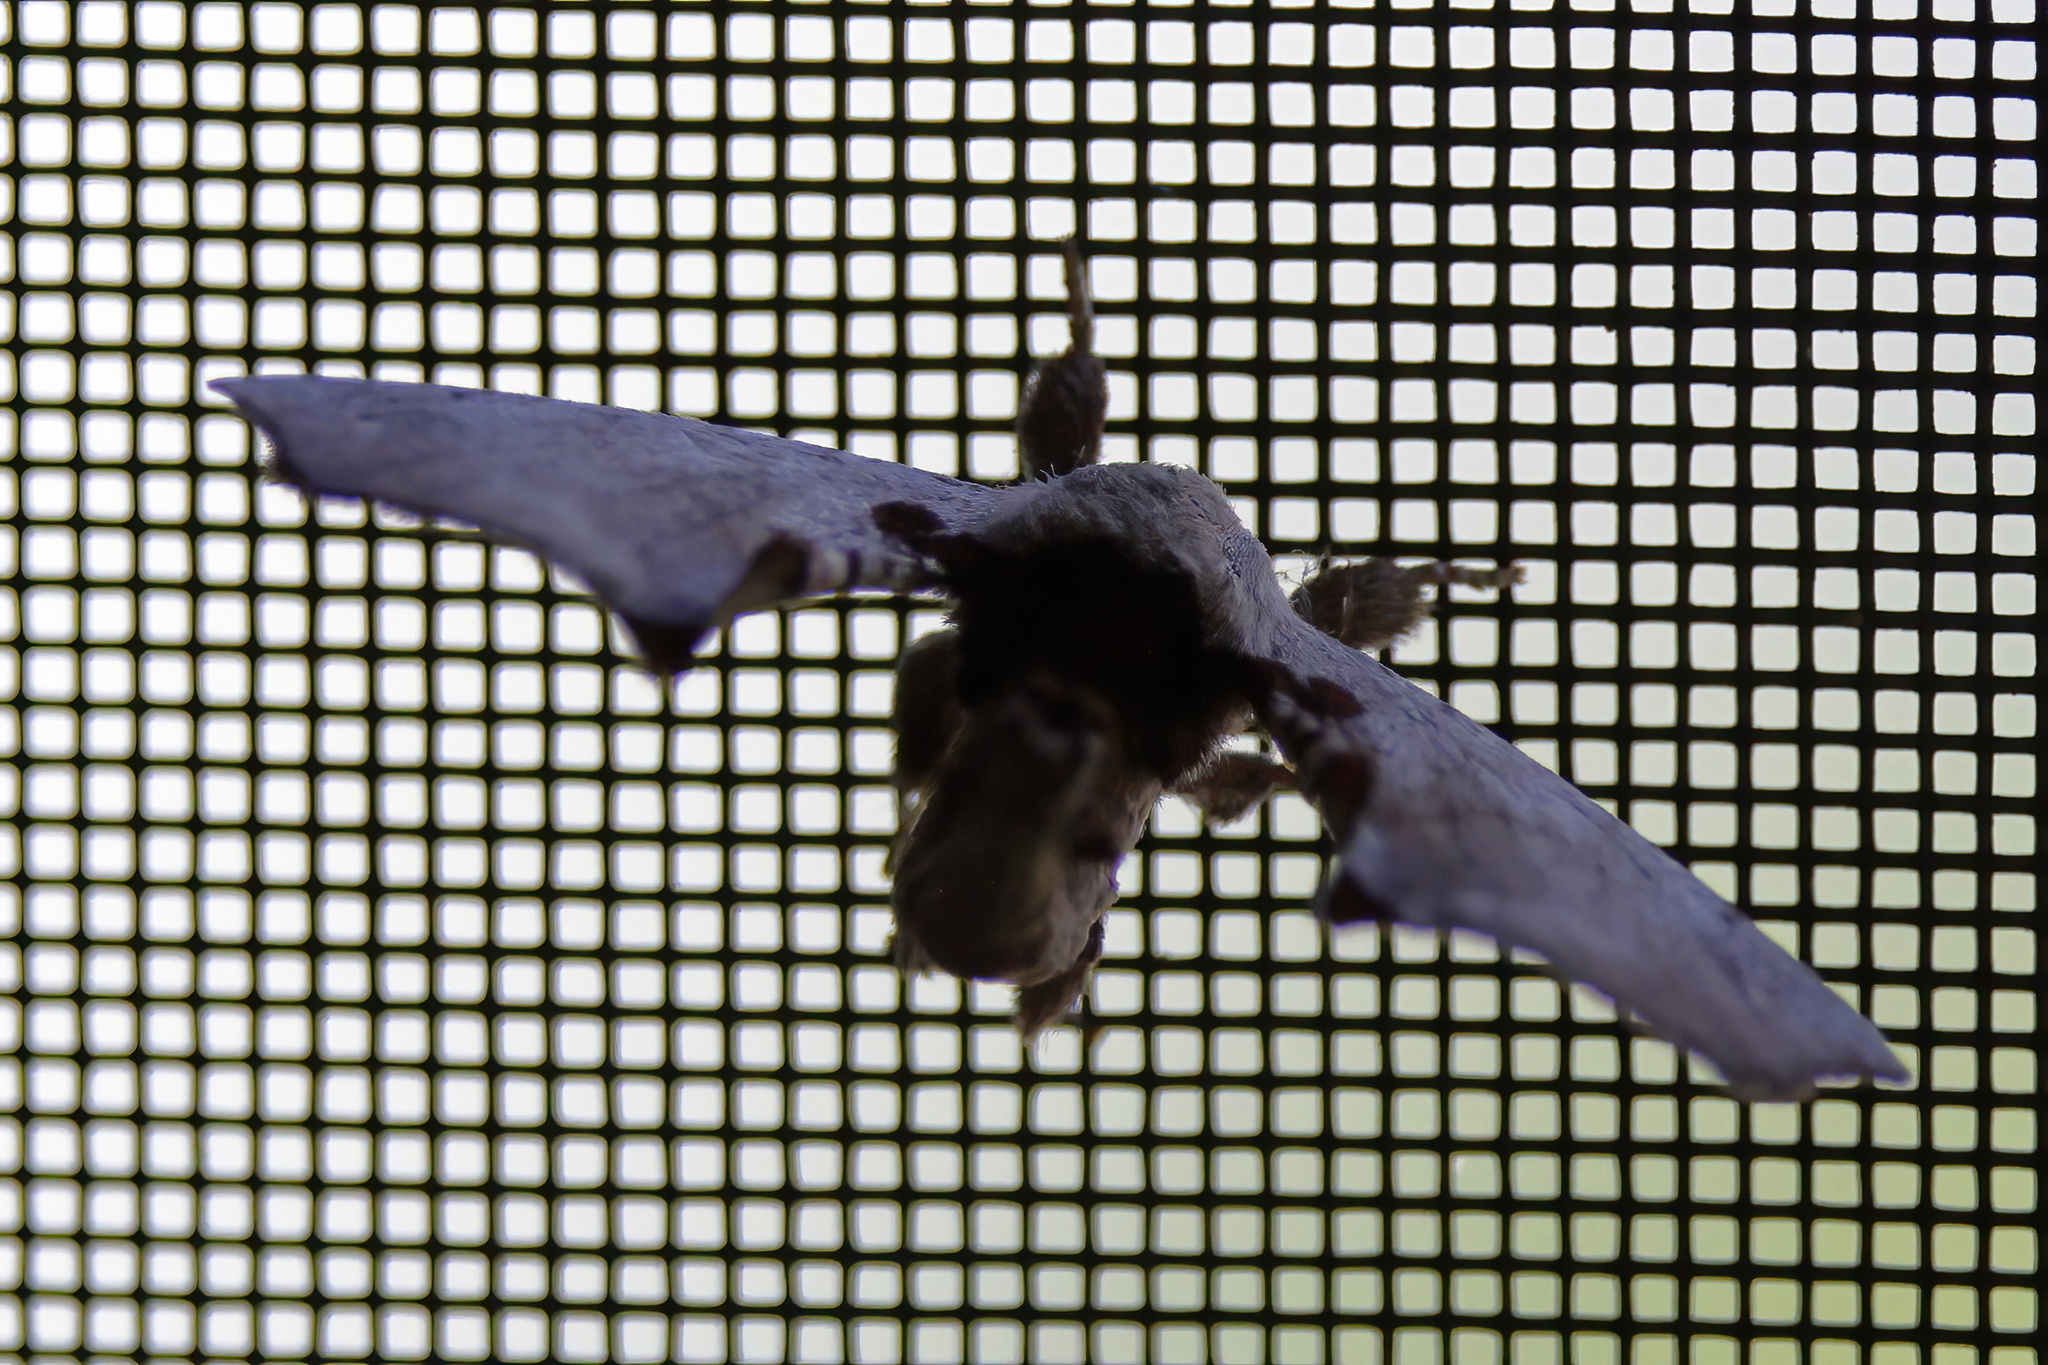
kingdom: Animalia
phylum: Arthropoda
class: Insecta
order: Lepidoptera
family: Apatelodidae
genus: Hygrochroa
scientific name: Hygrochroa Apatelodes torrefacta
